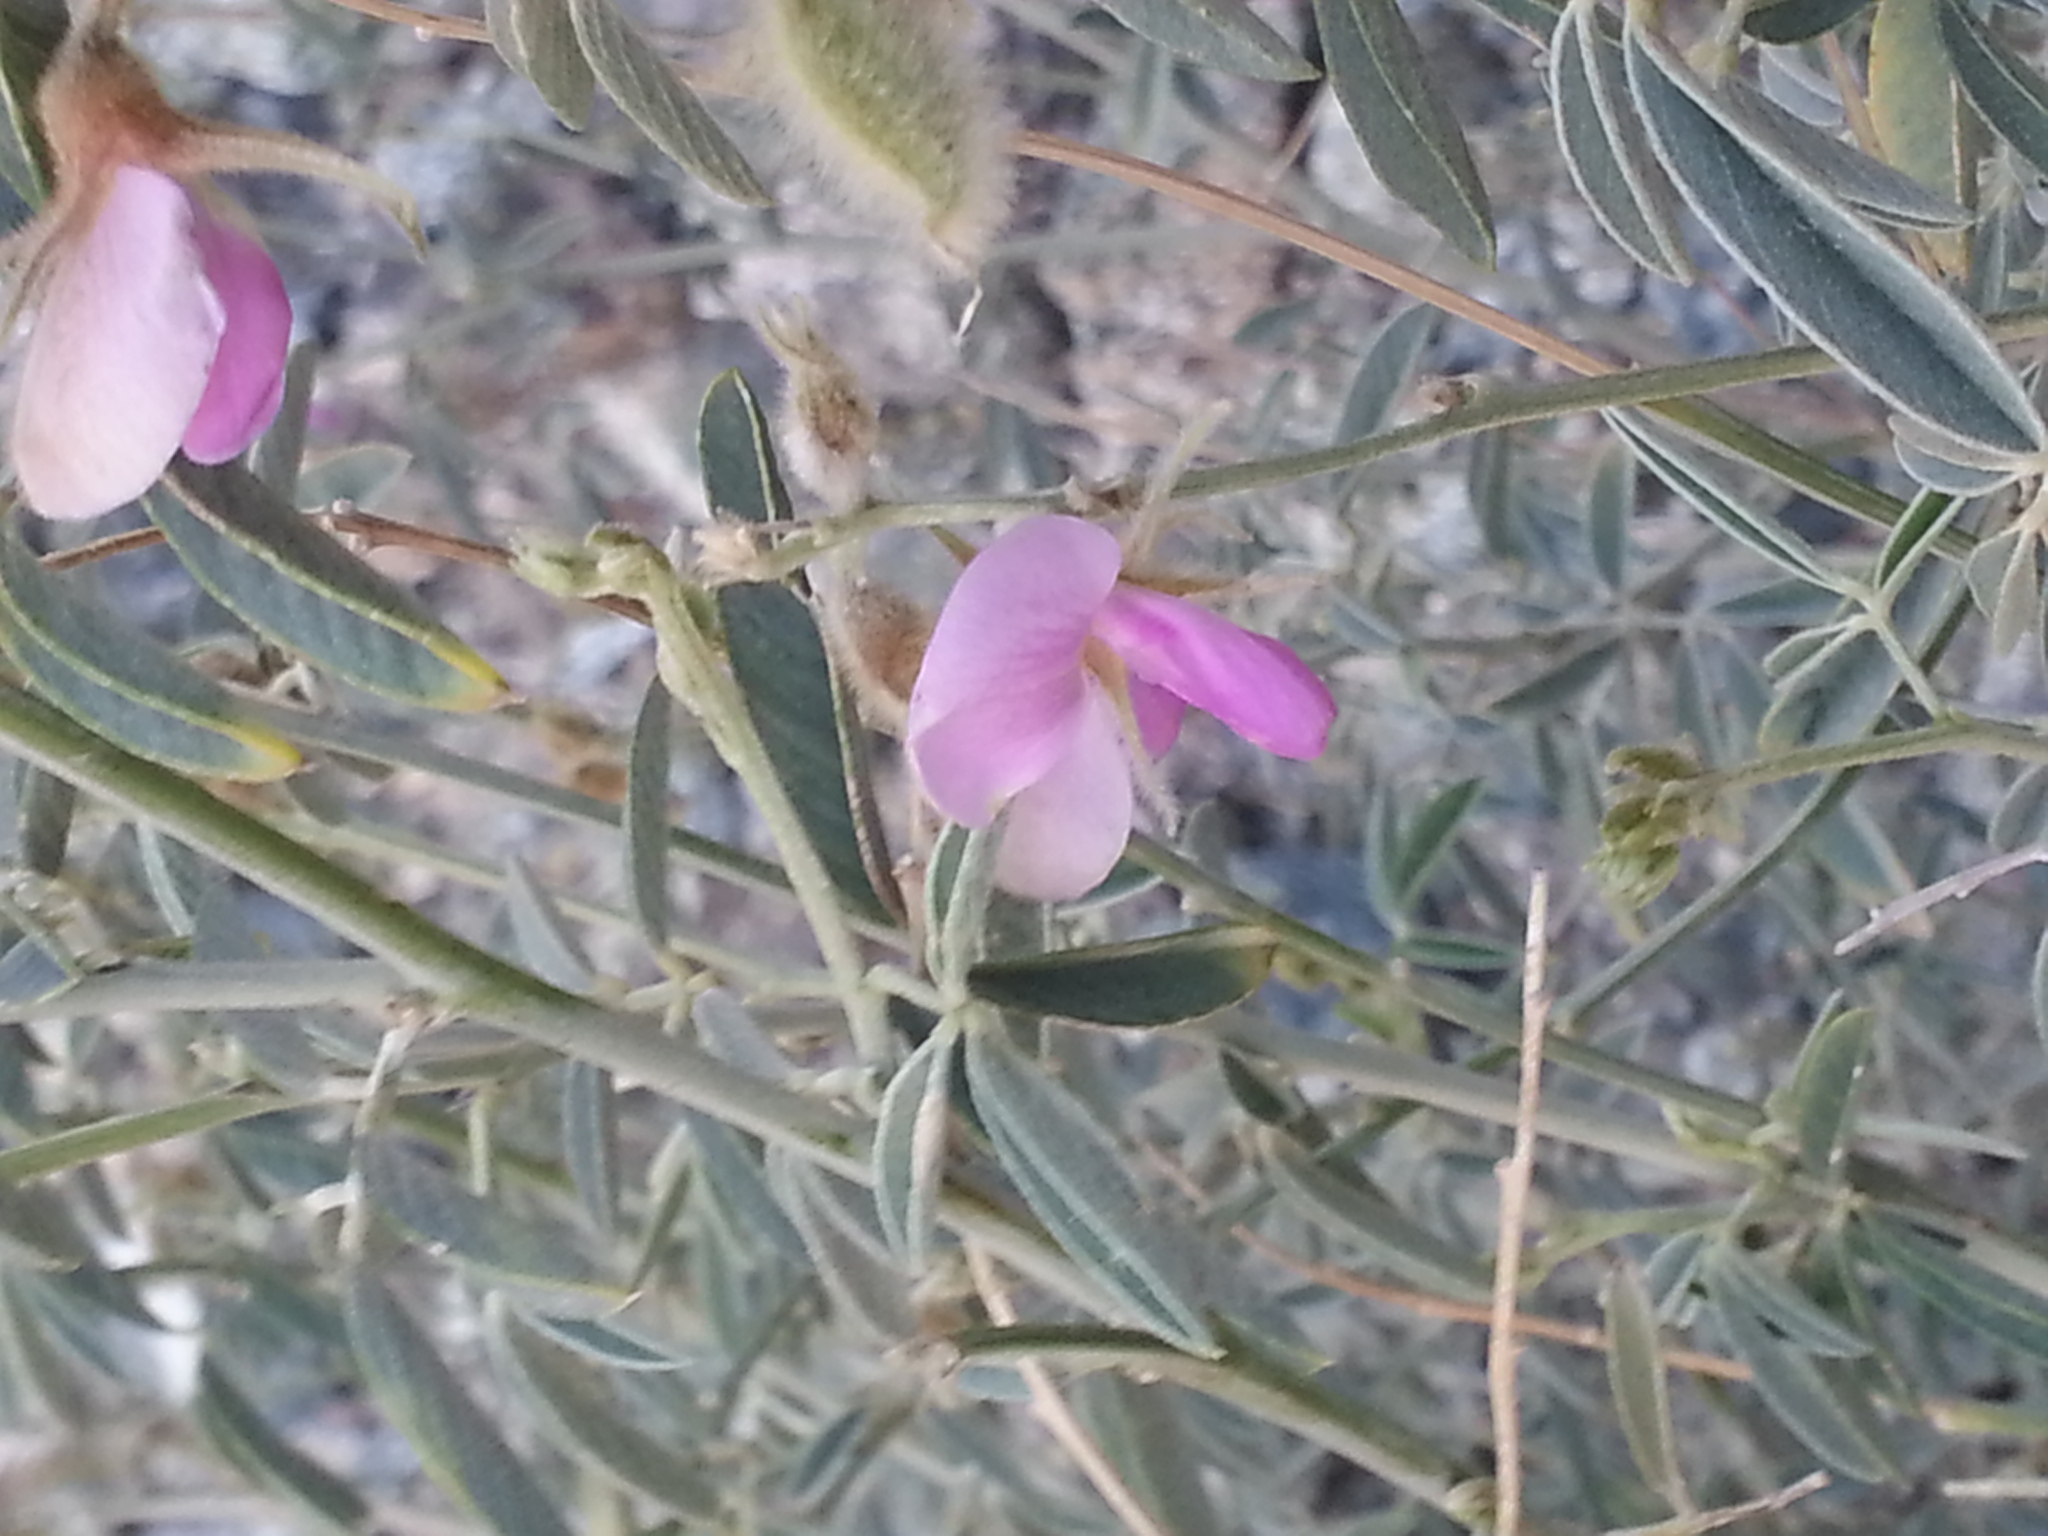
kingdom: Plantae
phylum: Tracheophyta
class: Magnoliopsida
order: Fabales
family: Fabaceae
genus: Tephrosia
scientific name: Tephrosia
